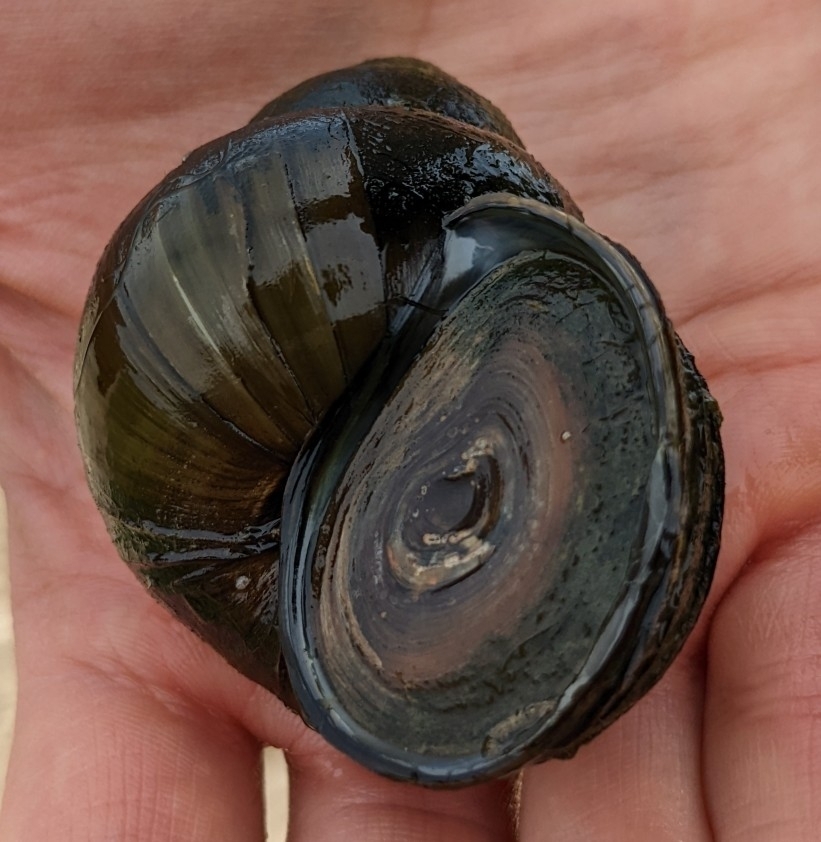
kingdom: Animalia
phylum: Mollusca
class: Gastropoda
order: Architaenioglossa
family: Viviparidae
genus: Cipangopaludina
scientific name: Cipangopaludina chinensis
